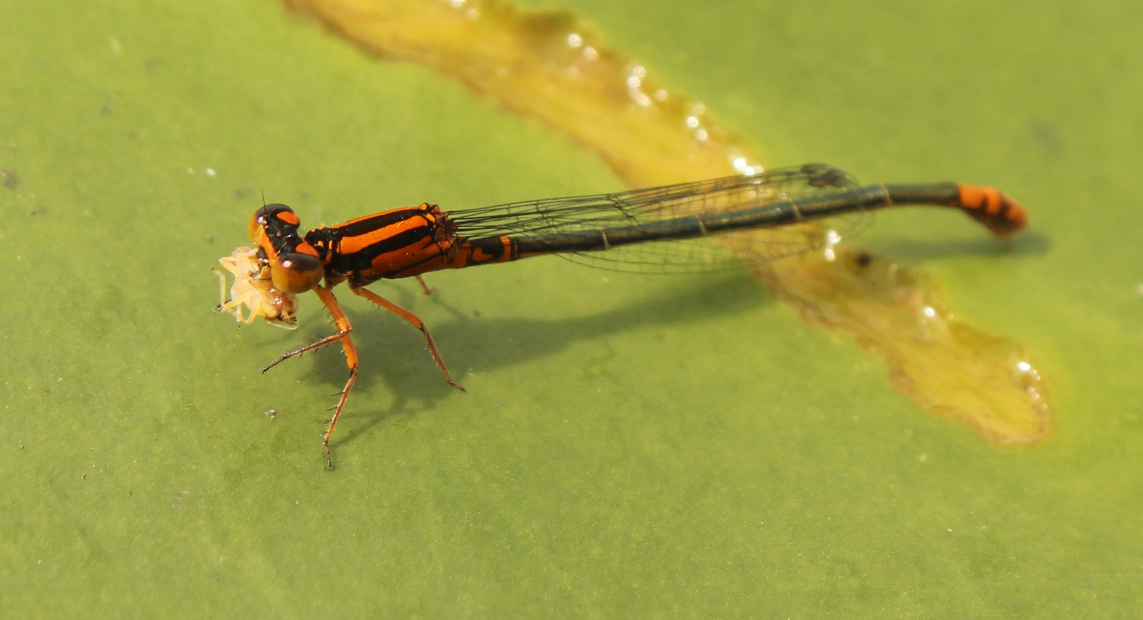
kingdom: Animalia
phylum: Arthropoda
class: Insecta
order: Odonata
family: Coenagrionidae
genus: Ischnura
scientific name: Ischnura kellicotti
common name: Lilypad forktail
